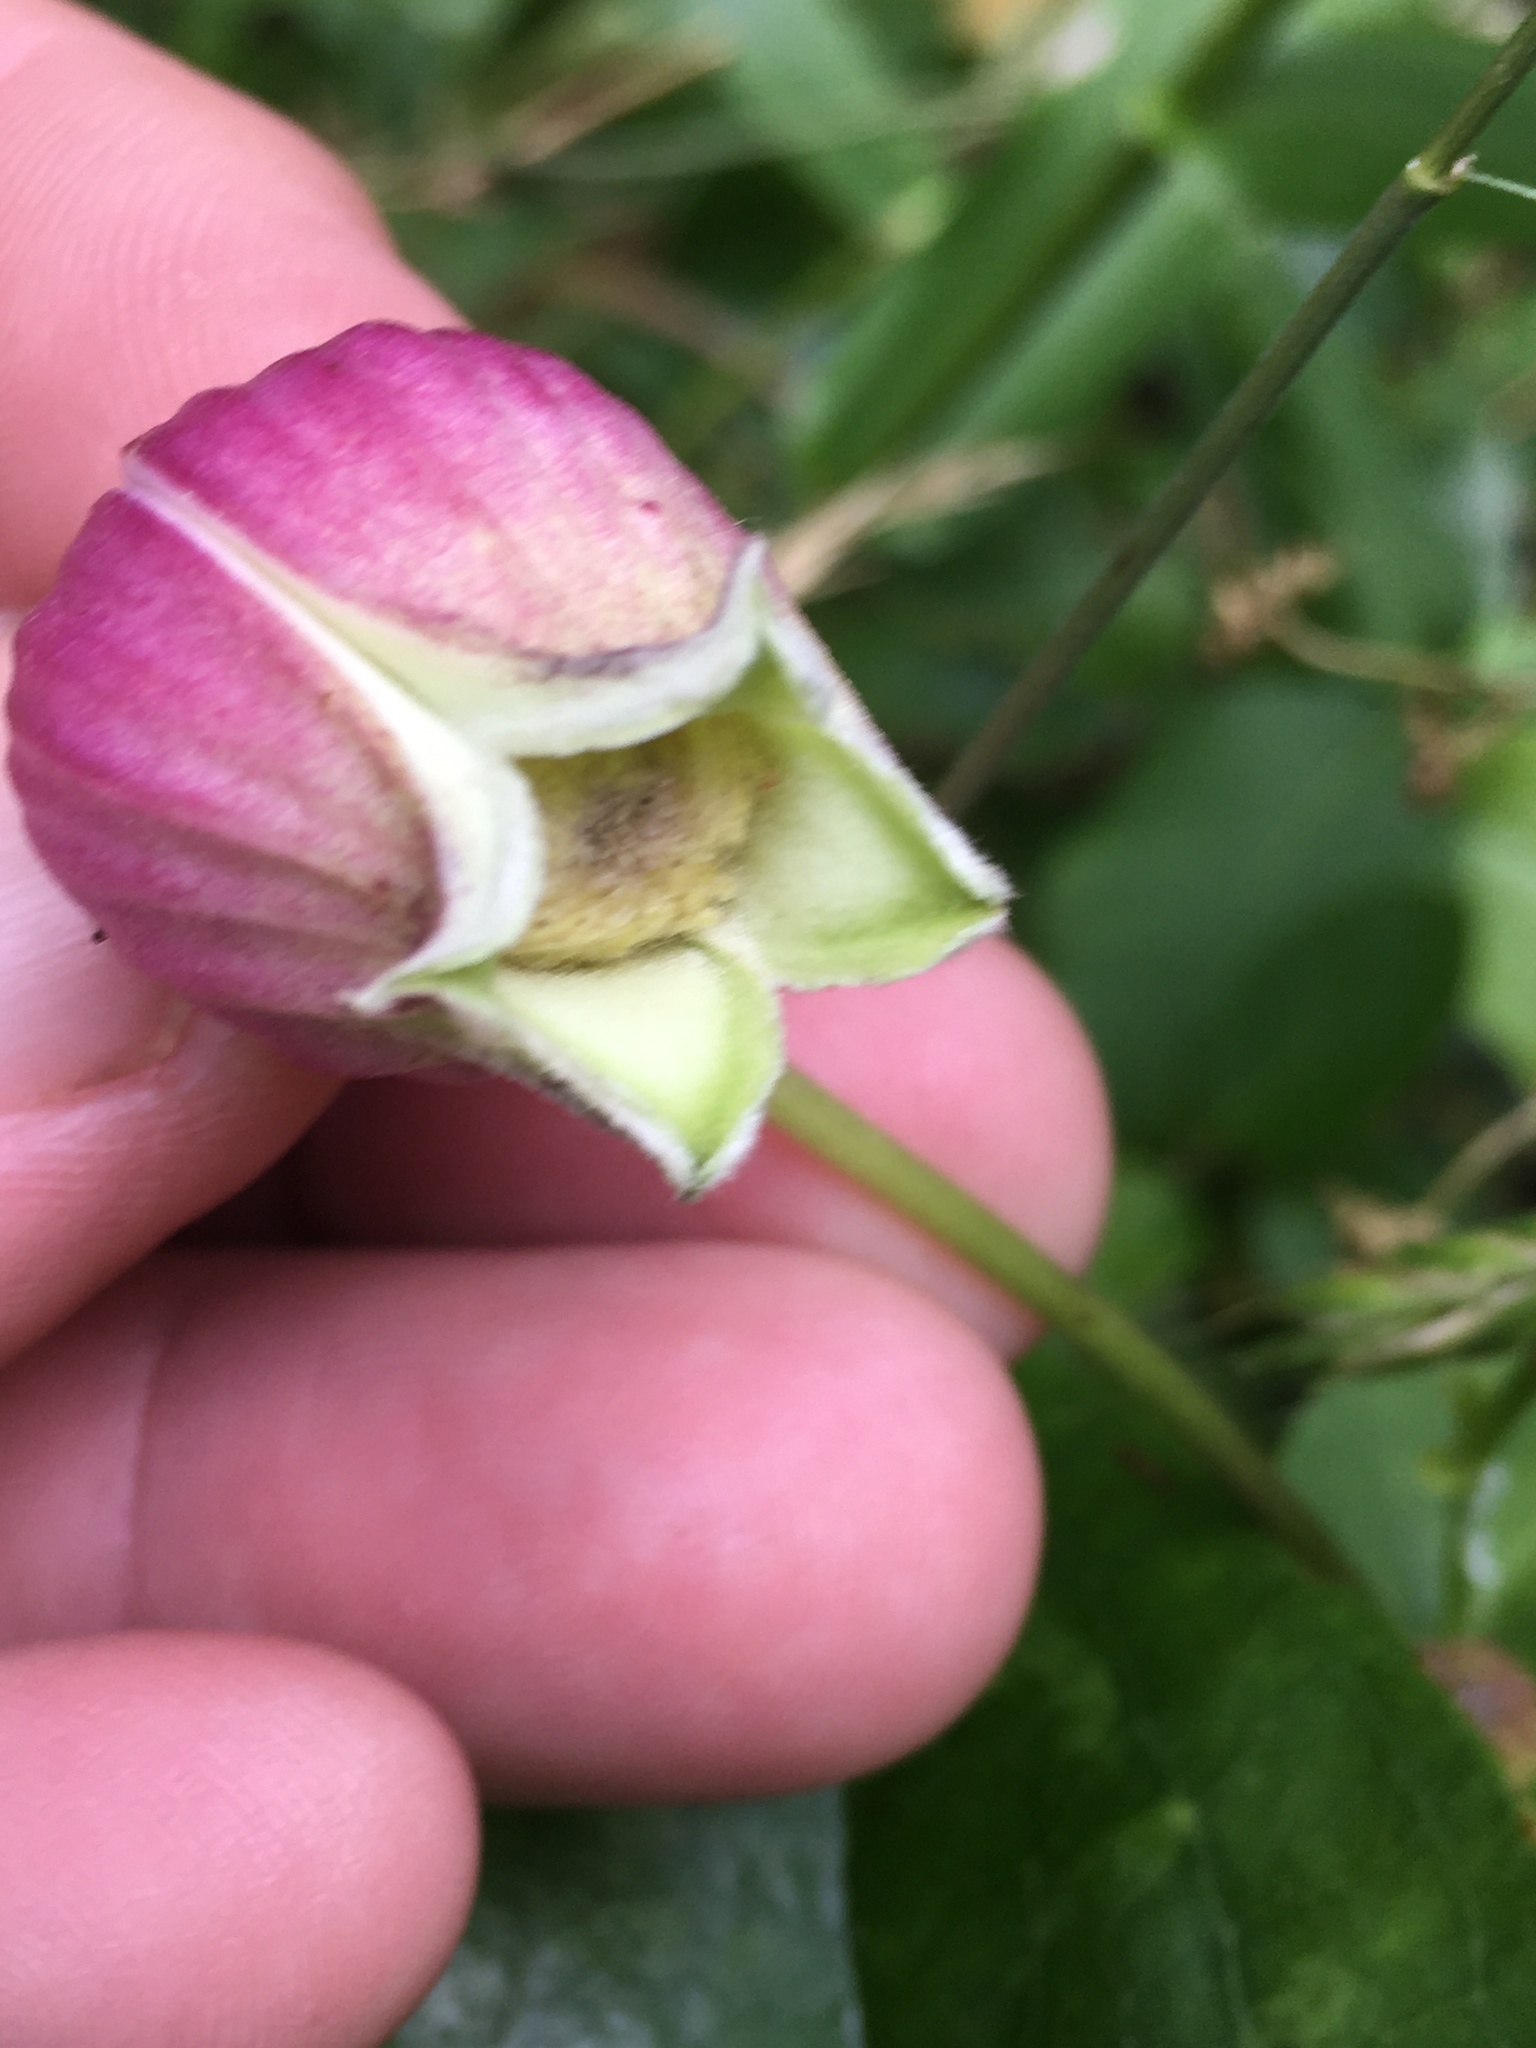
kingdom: Plantae
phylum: Tracheophyta
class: Magnoliopsida
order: Ranunculales
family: Ranunculaceae
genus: Clematis
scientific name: Clematis viorna
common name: Leather-flower
